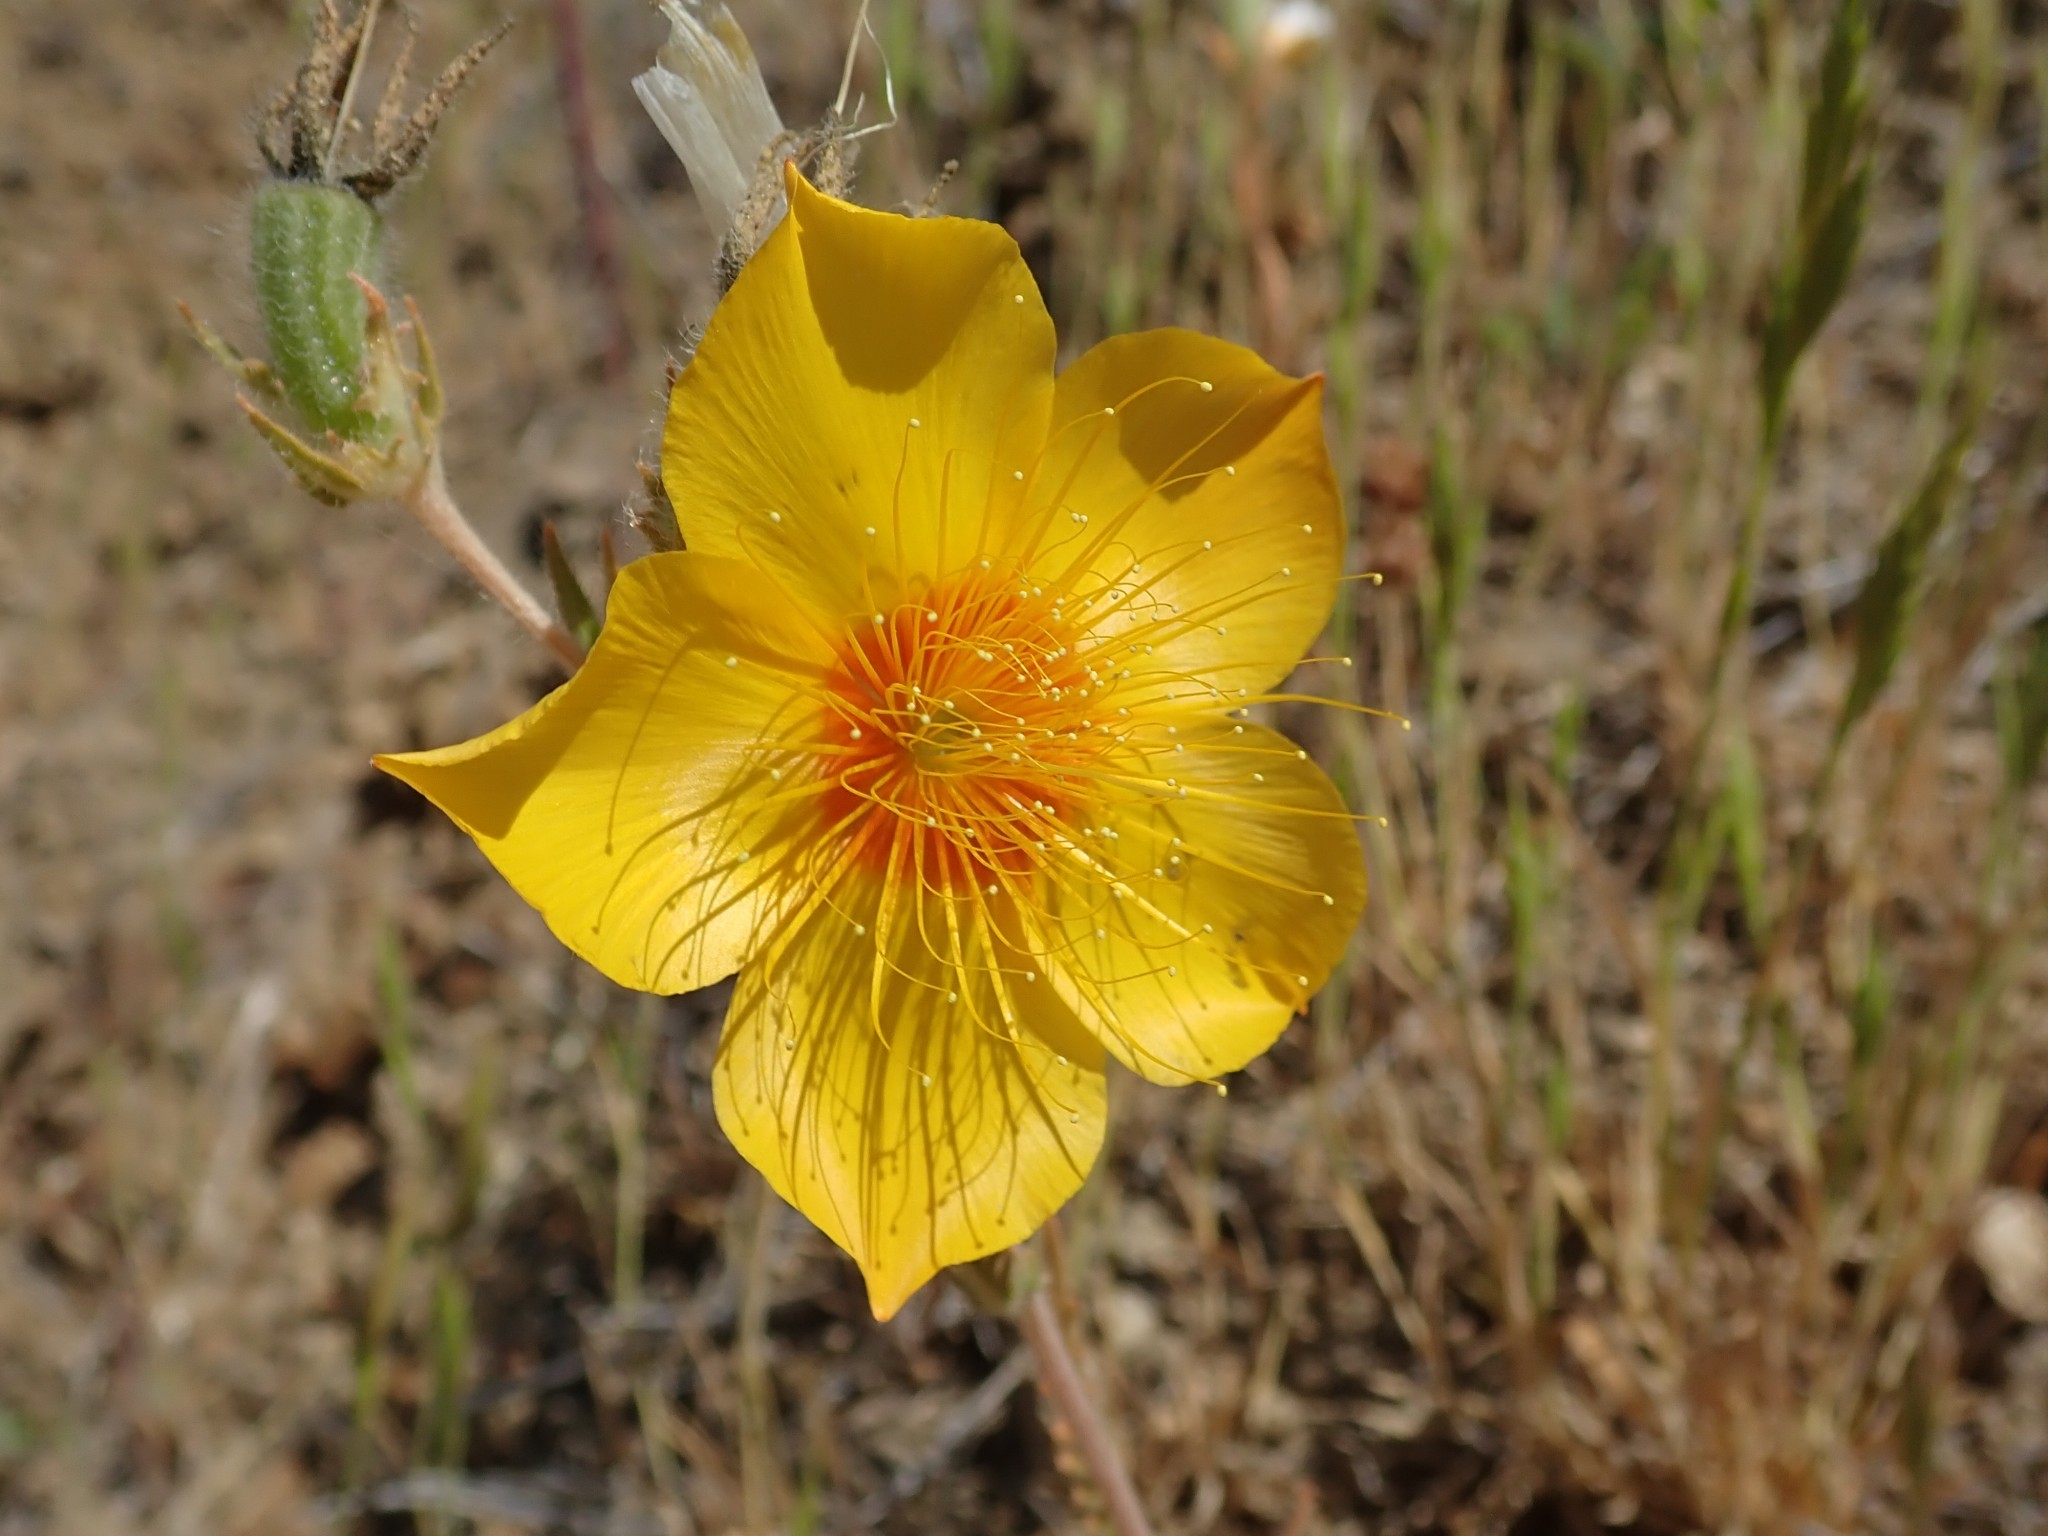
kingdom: Plantae
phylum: Tracheophyta
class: Magnoliopsida
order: Cornales
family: Loasaceae
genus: Mentzelia
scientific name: Mentzelia lindleyi
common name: Golden bartonia
